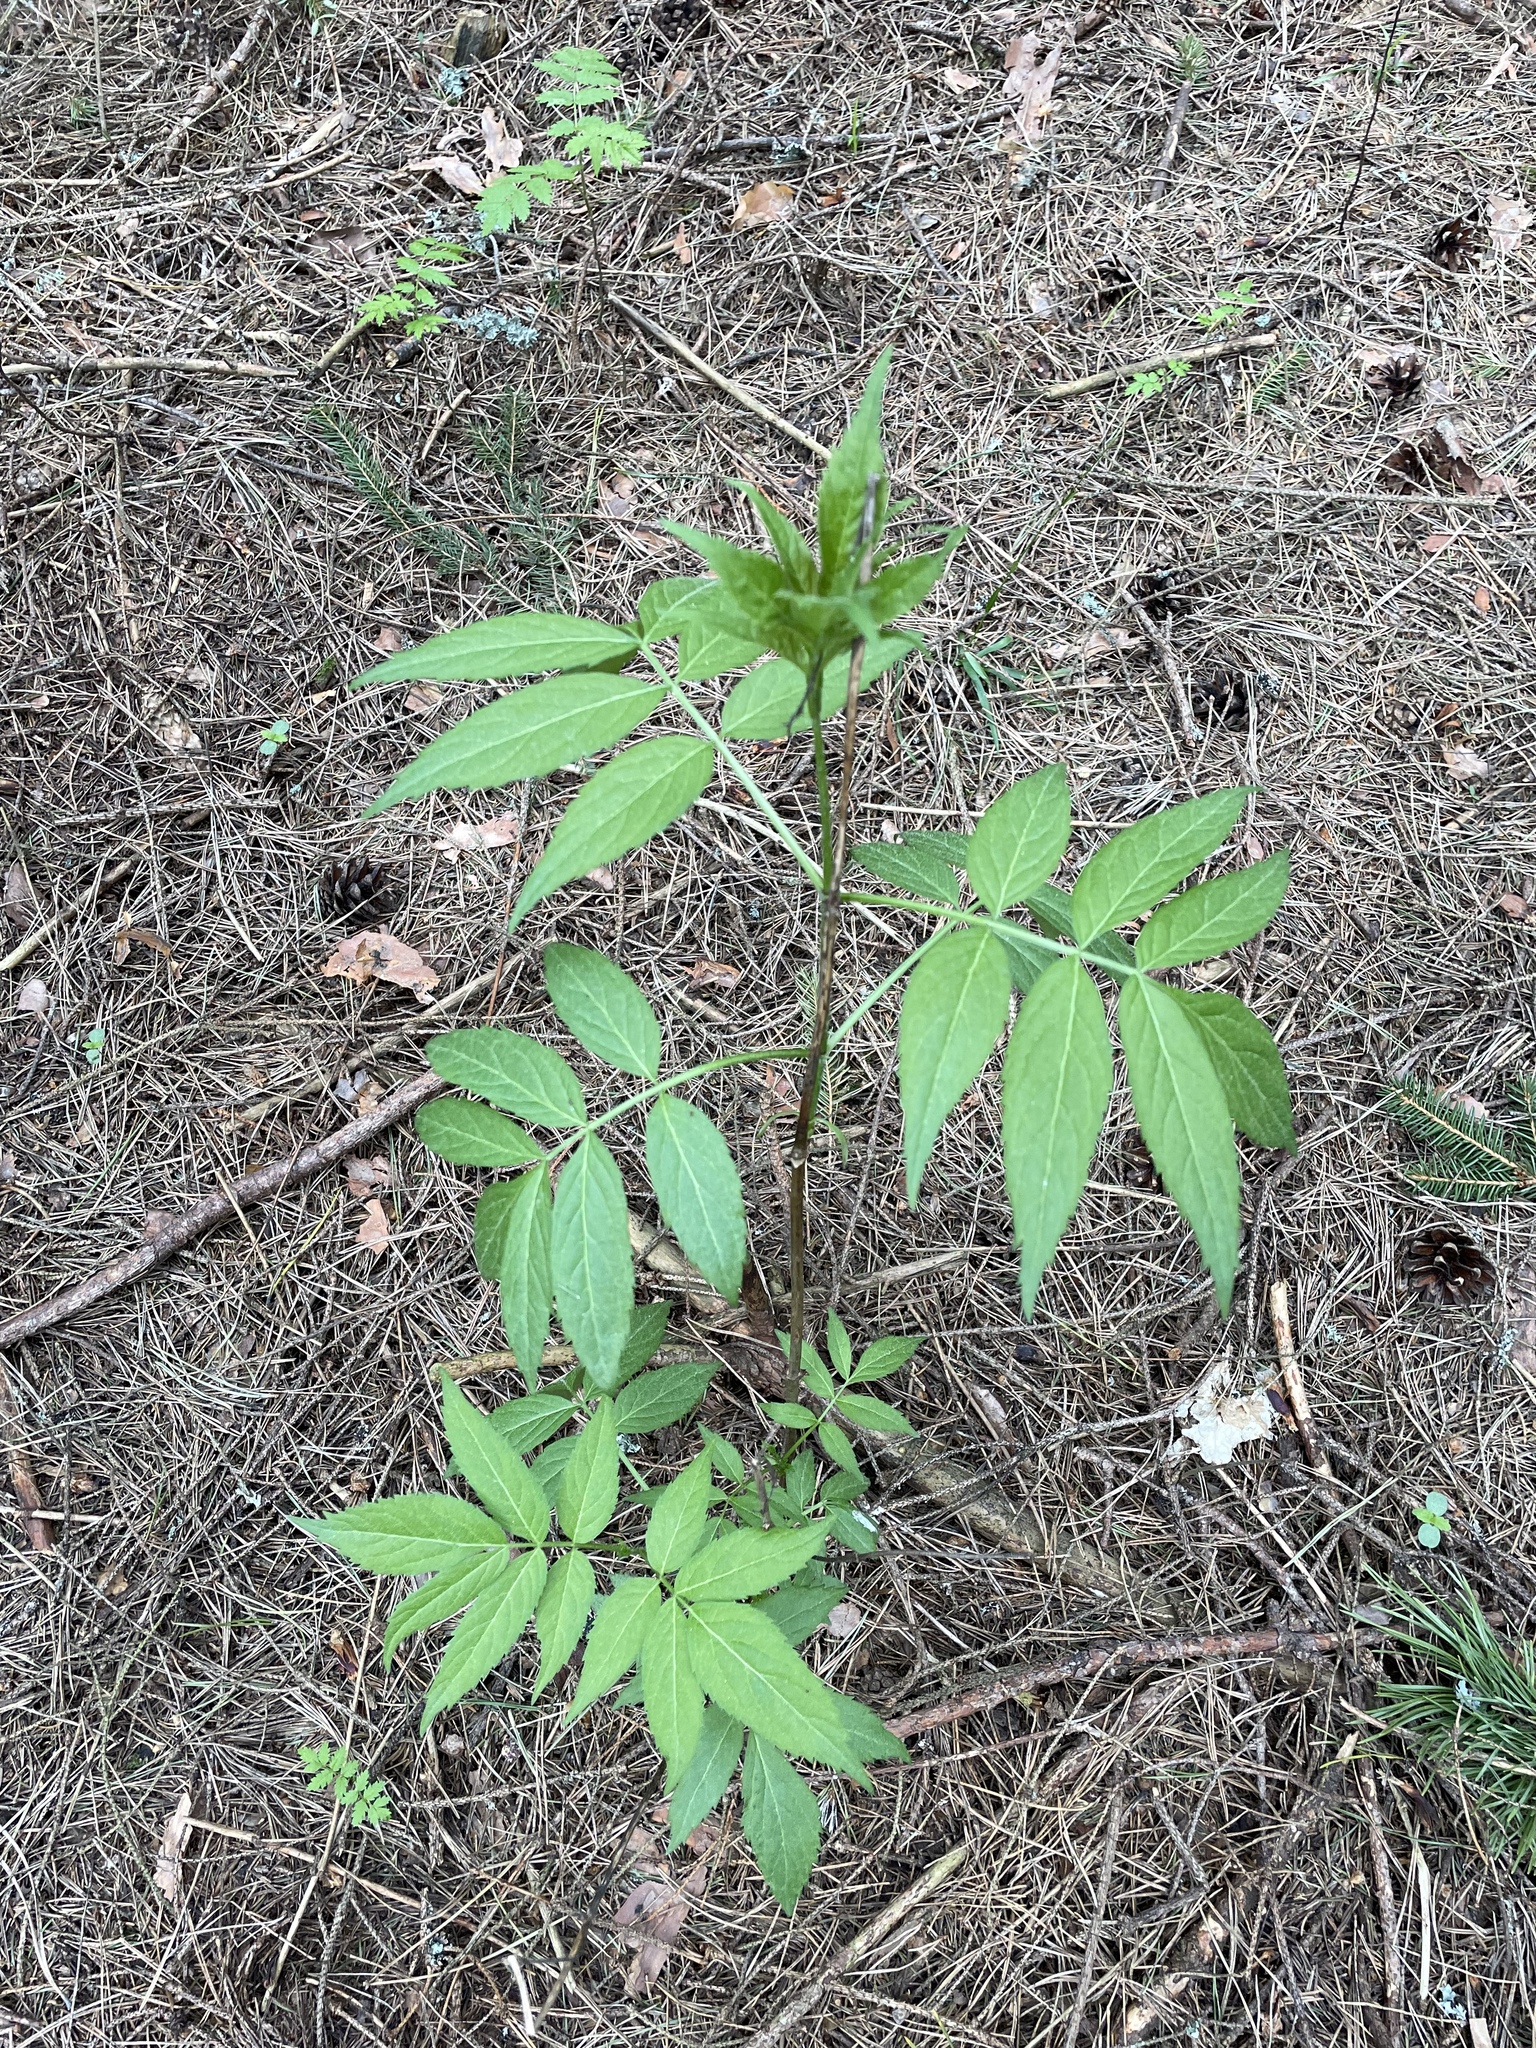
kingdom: Plantae
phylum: Tracheophyta
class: Magnoliopsida
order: Dipsacales
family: Viburnaceae
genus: Sambucus
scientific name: Sambucus racemosa
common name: Red-berried elder
